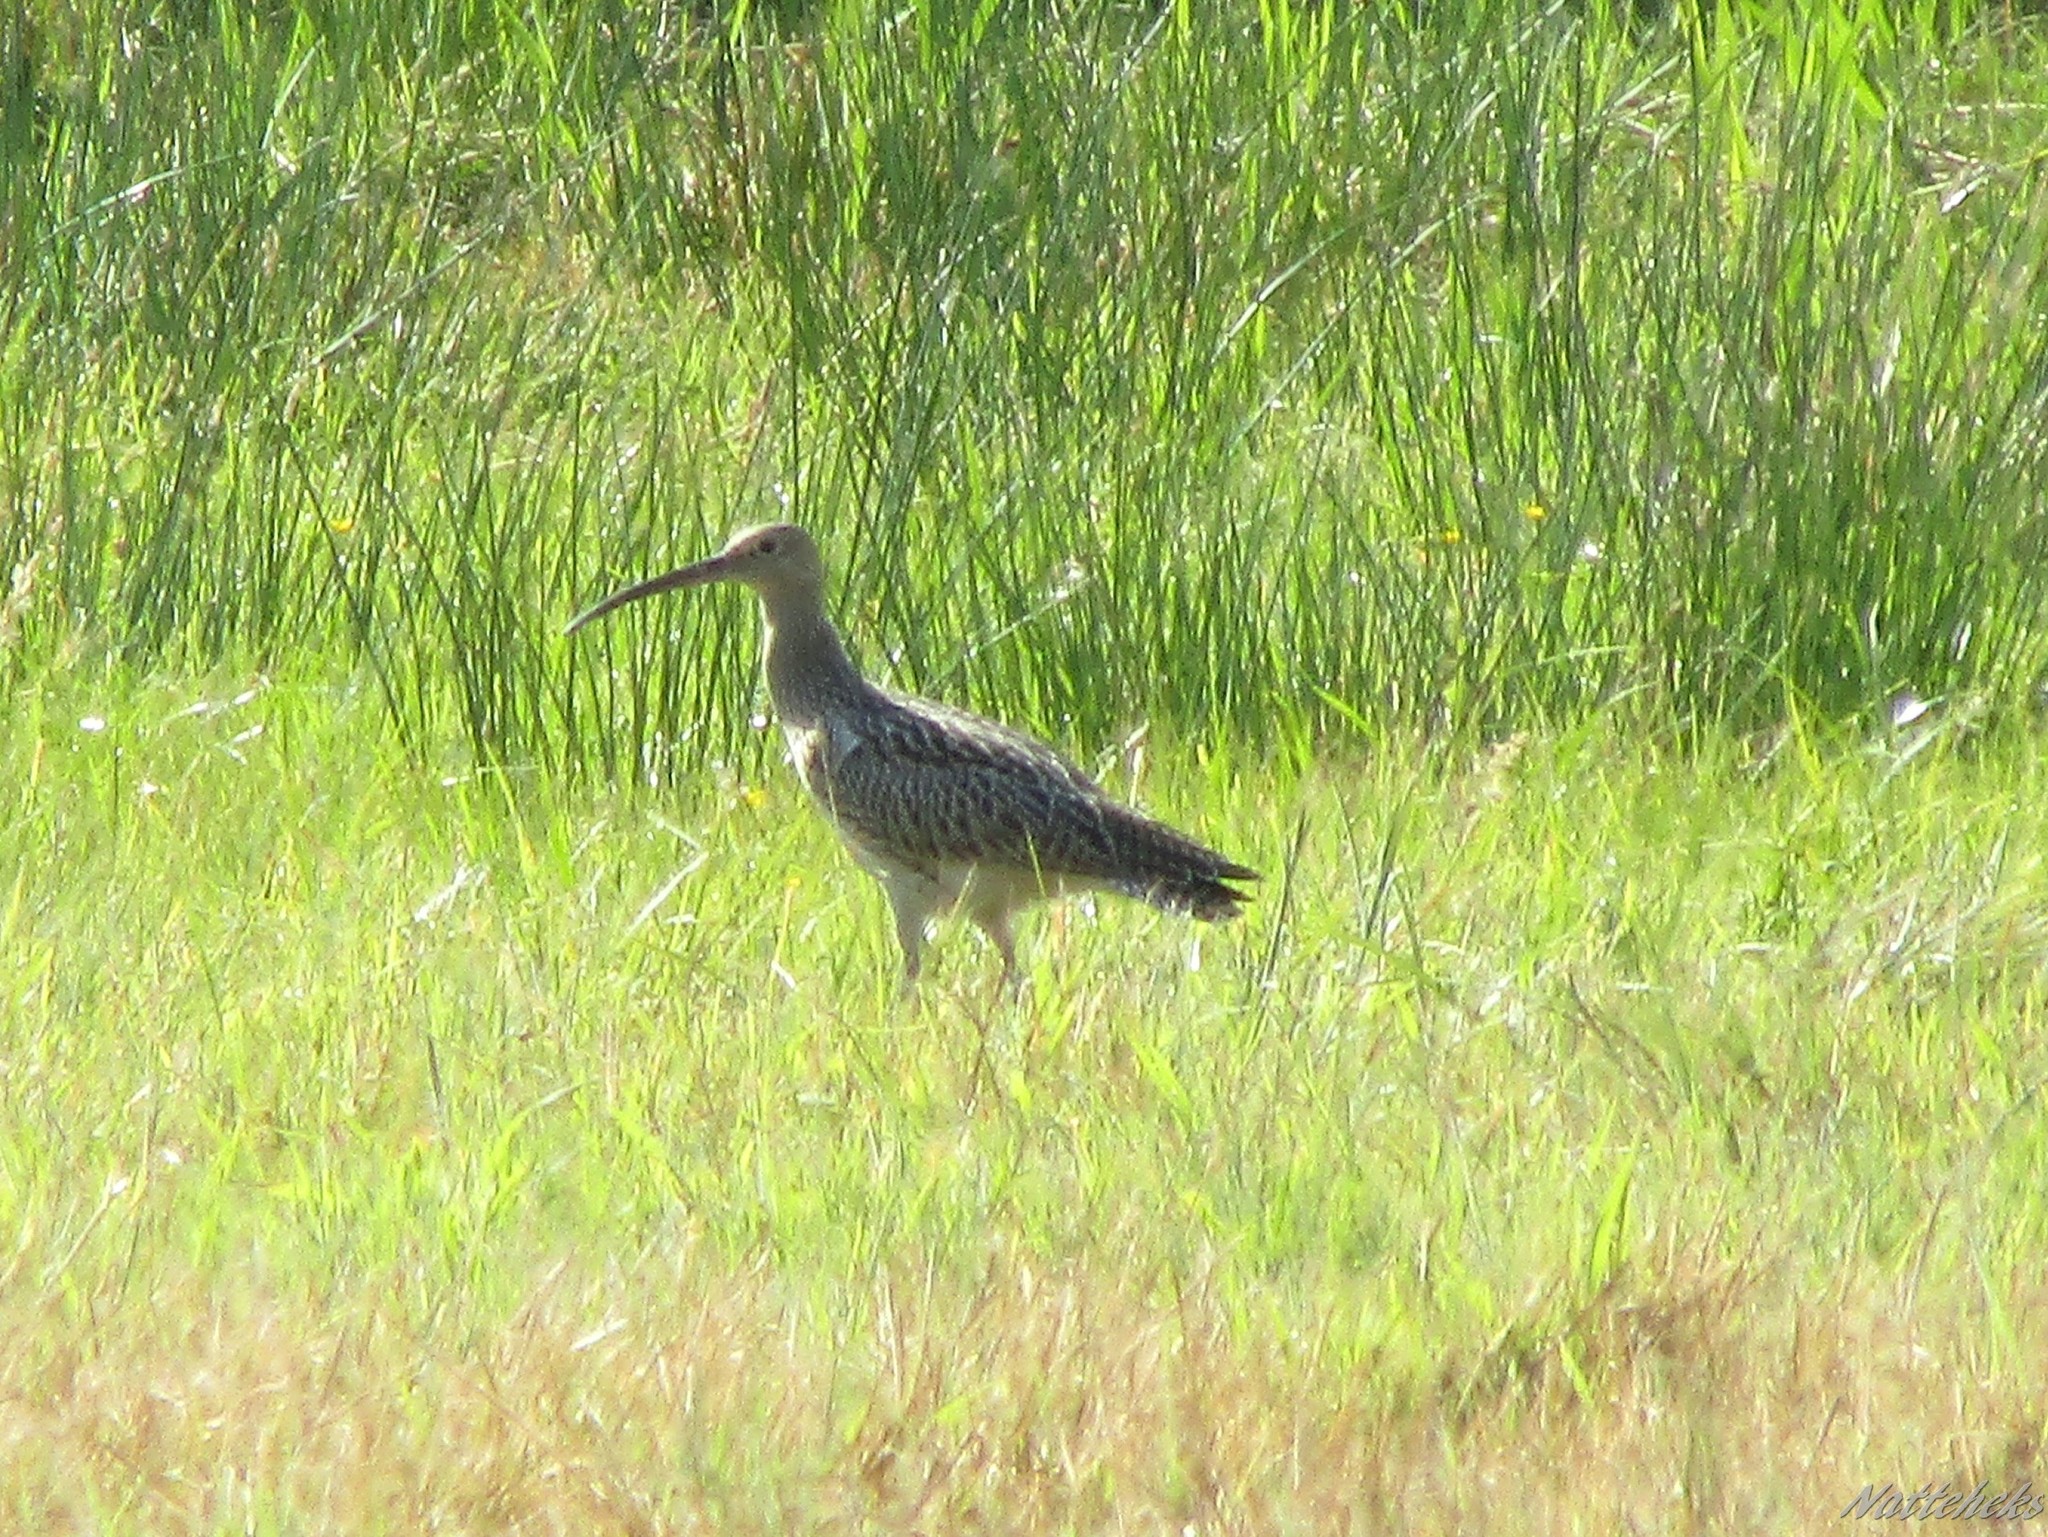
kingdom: Animalia
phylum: Chordata
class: Aves
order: Charadriiformes
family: Scolopacidae
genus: Numenius
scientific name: Numenius arquata
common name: Eurasian curlew
